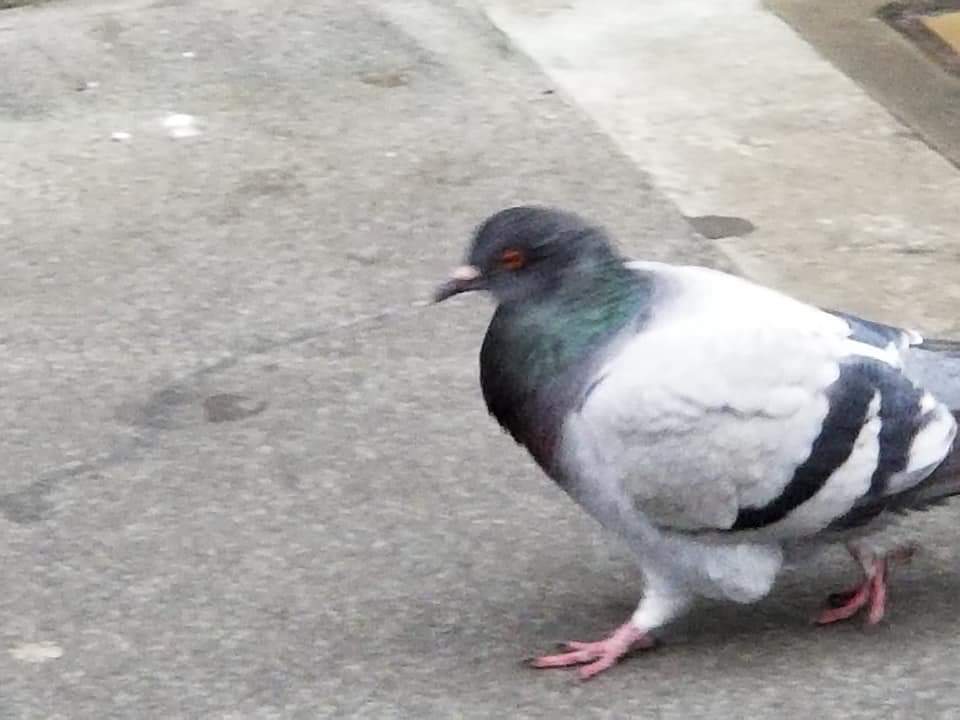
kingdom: Animalia
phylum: Chordata
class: Aves
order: Columbiformes
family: Columbidae
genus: Columba
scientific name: Columba livia
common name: Rock pigeon
